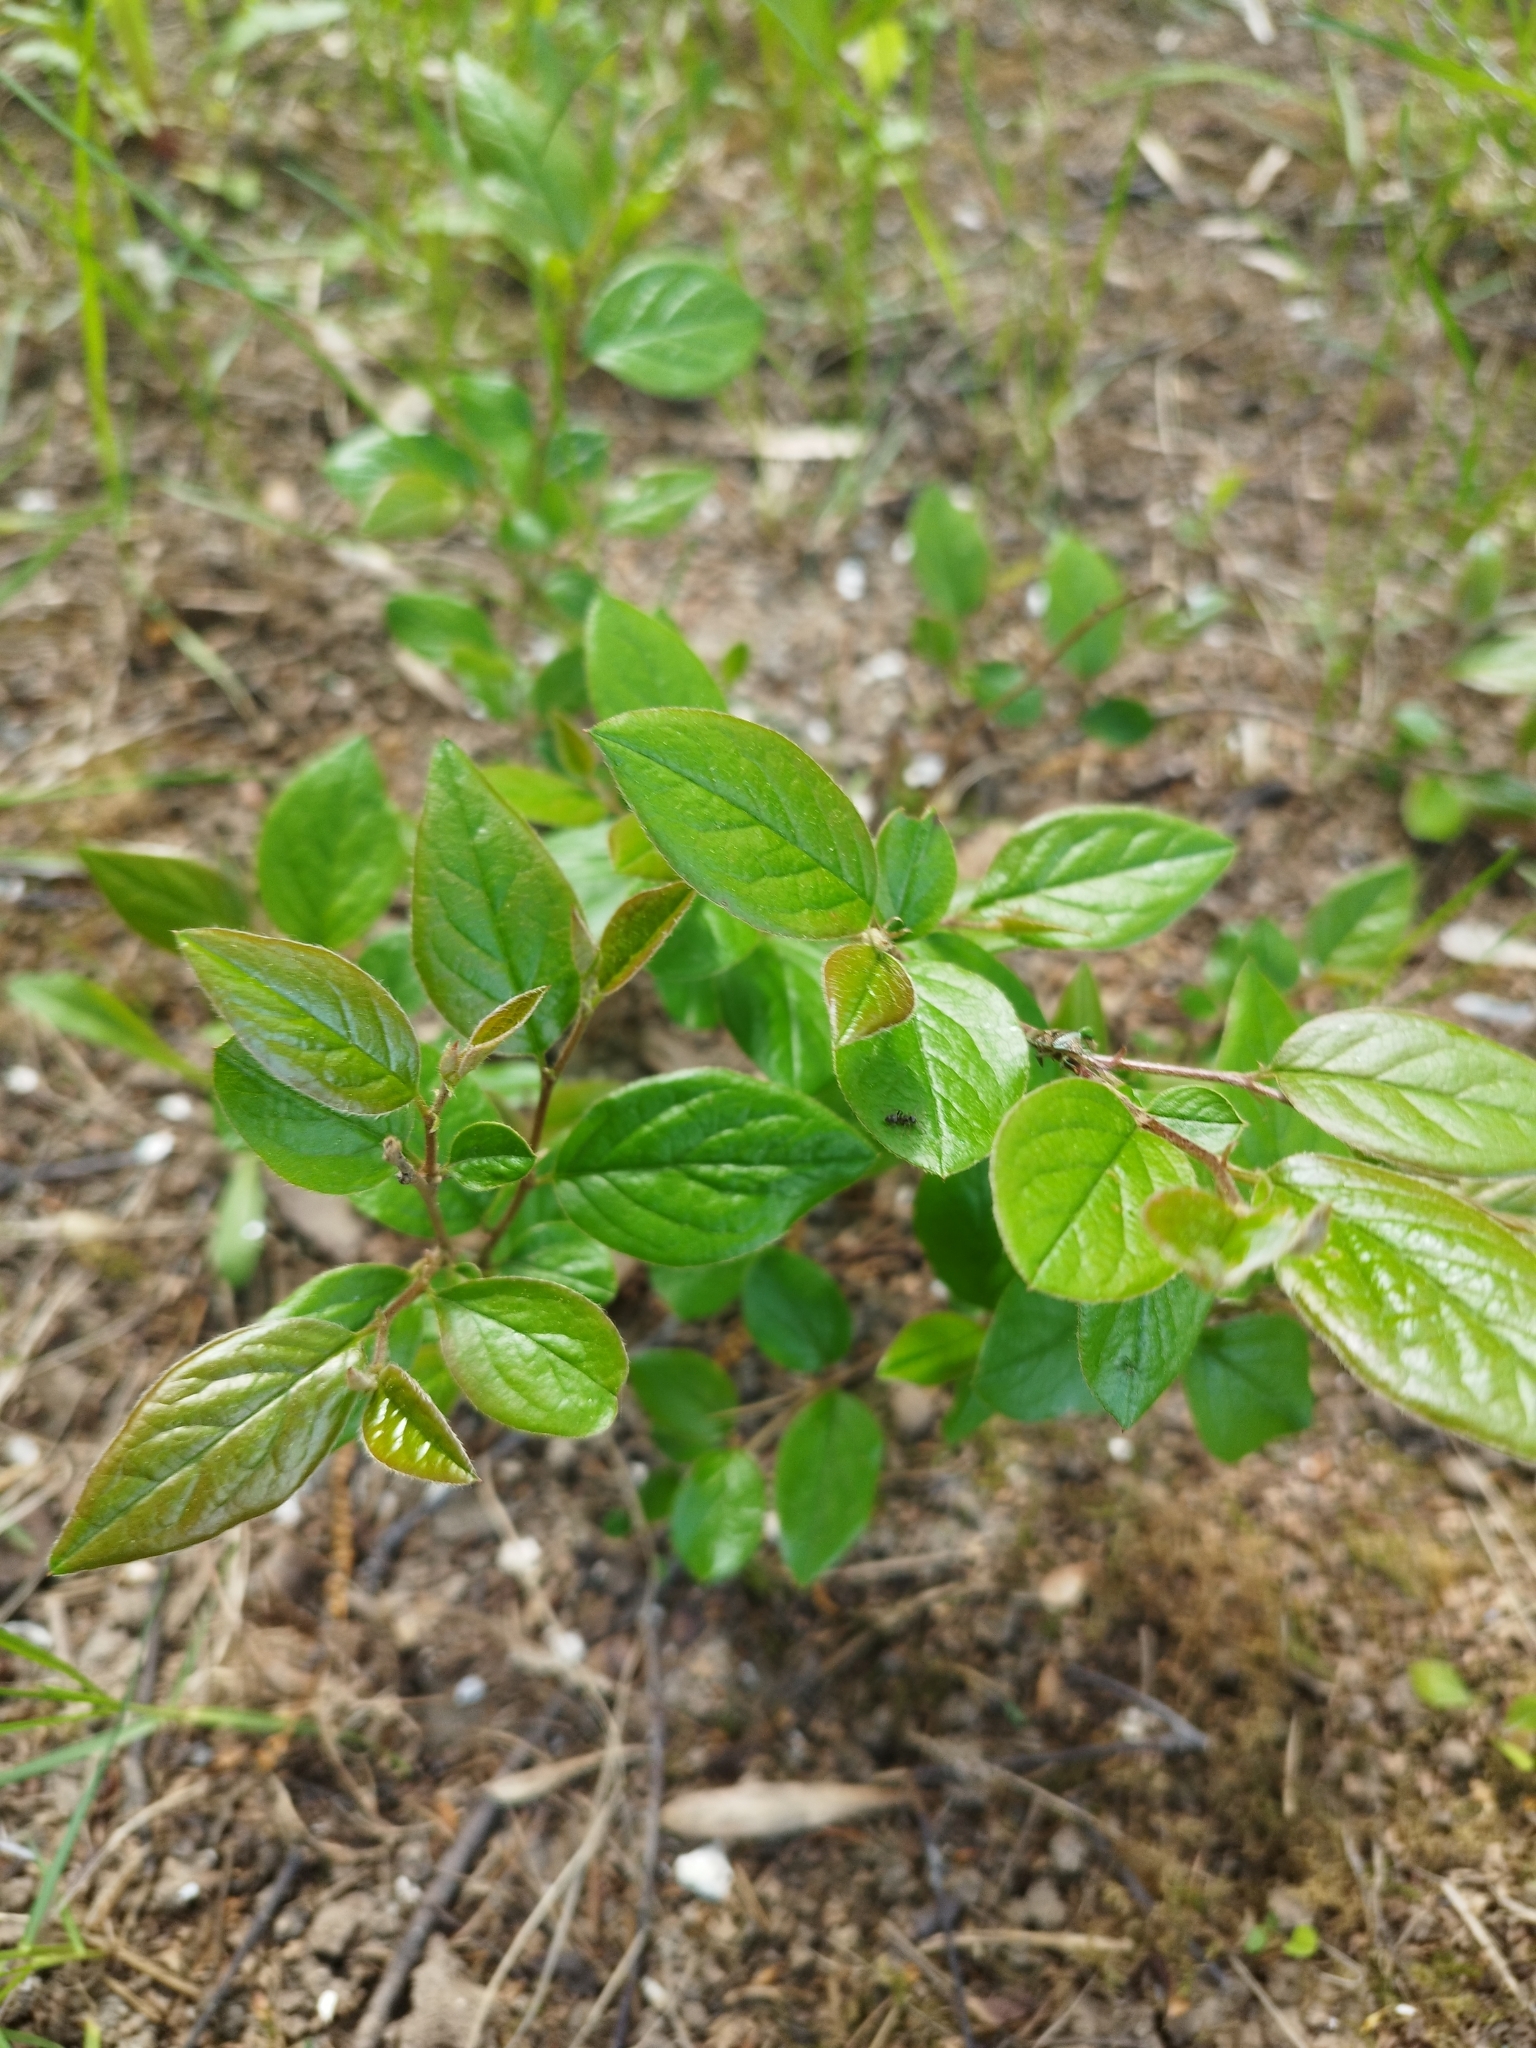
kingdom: Plantae
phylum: Tracheophyta
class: Magnoliopsida
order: Rosales
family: Rosaceae
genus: Cotoneaster
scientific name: Cotoneaster acutifolius
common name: Peking cotoneaster
